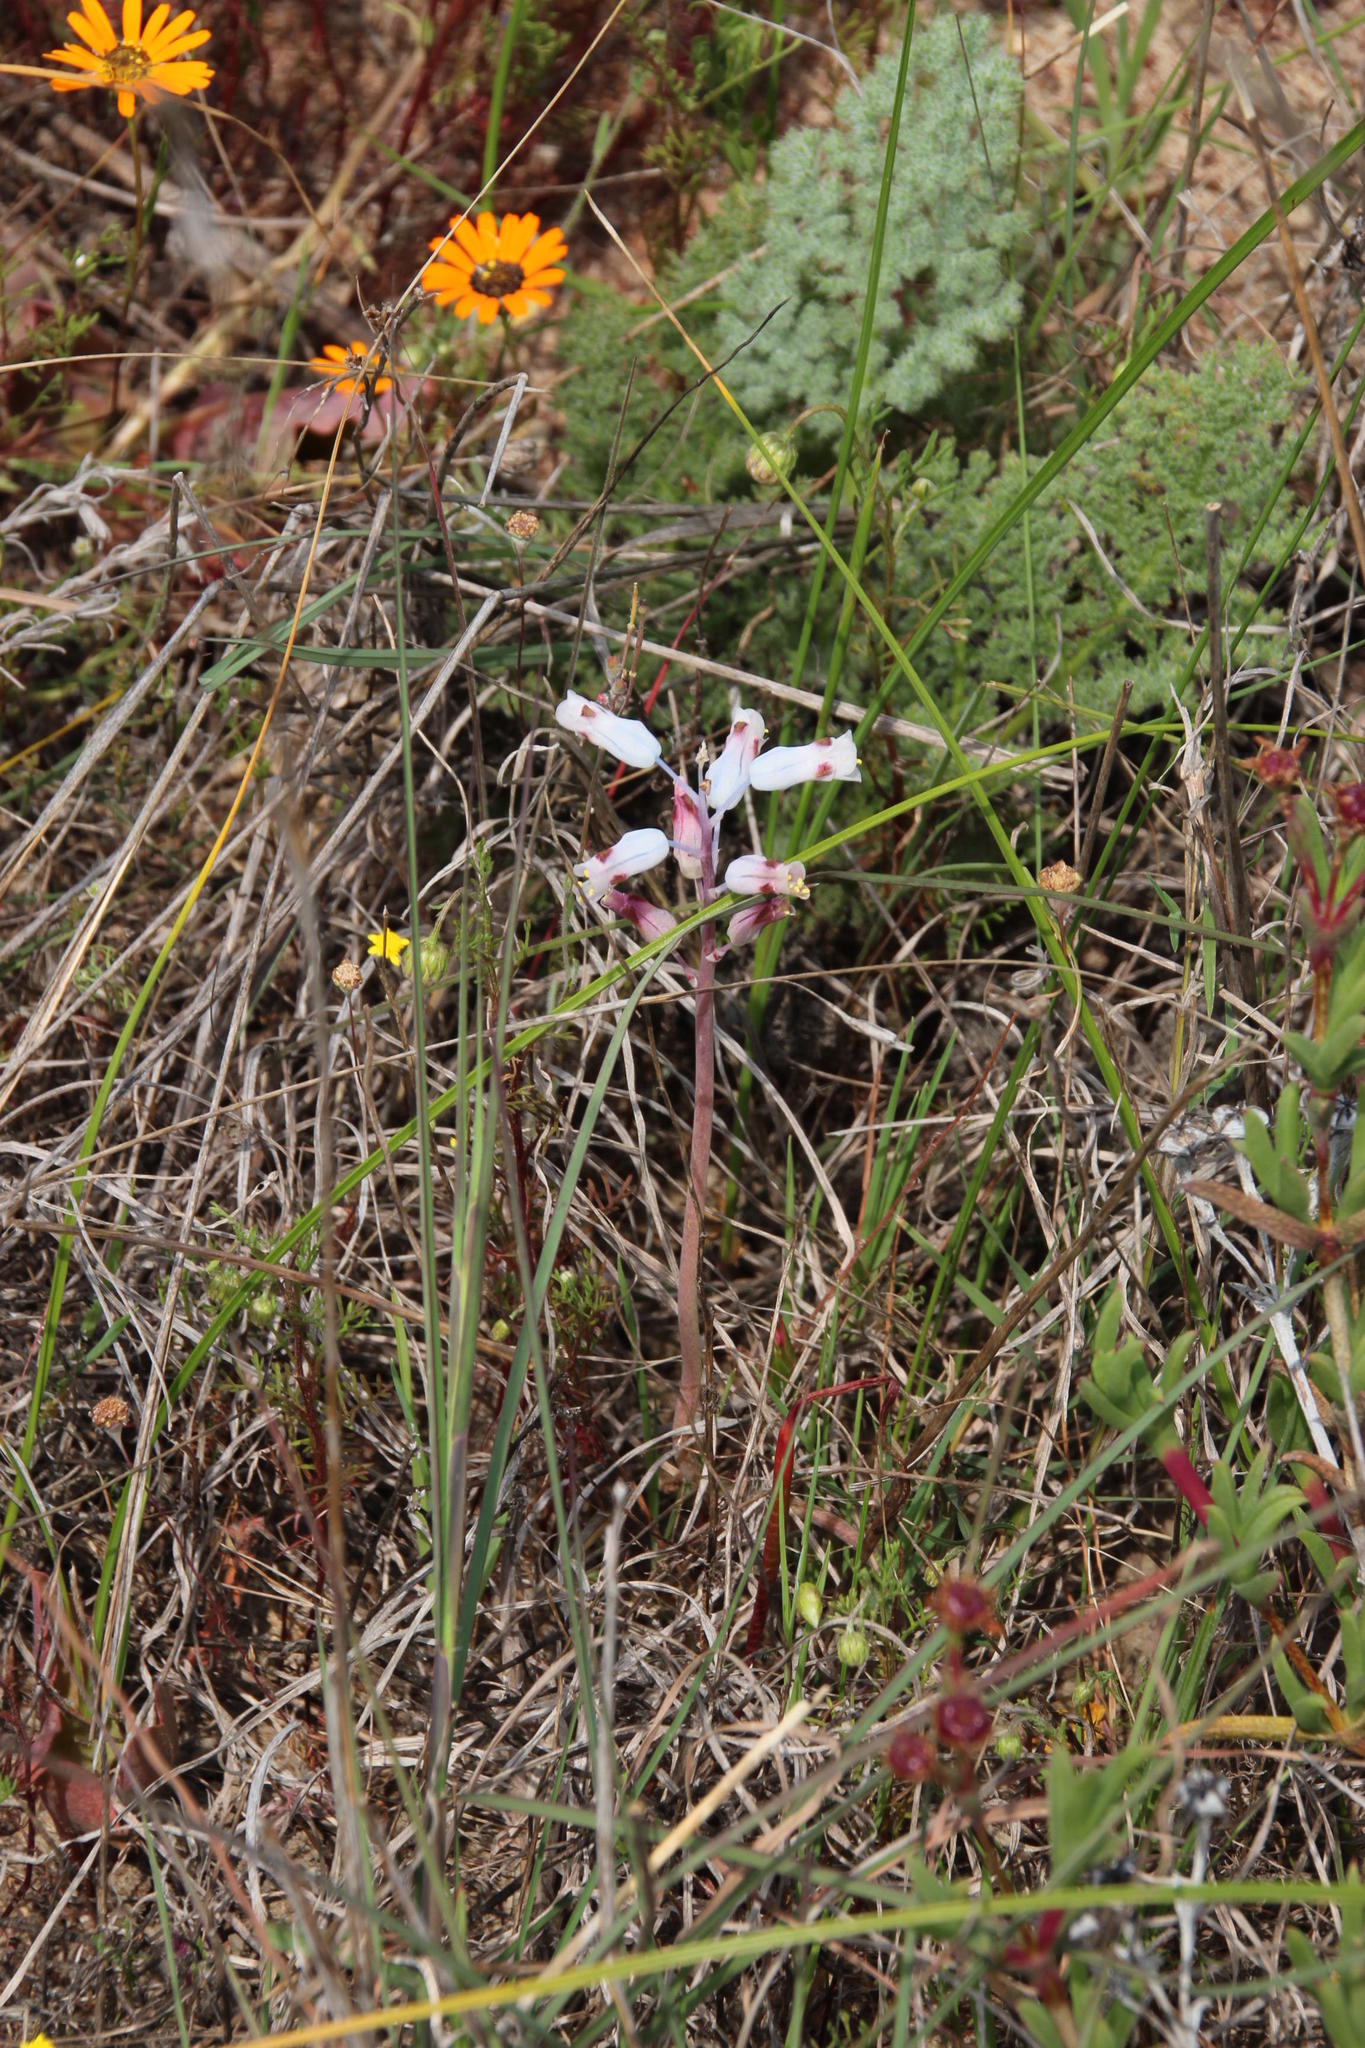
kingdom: Plantae
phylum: Tracheophyta
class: Liliopsida
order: Asparagales
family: Asparagaceae
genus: Lachenalia
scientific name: Lachenalia unifolia
